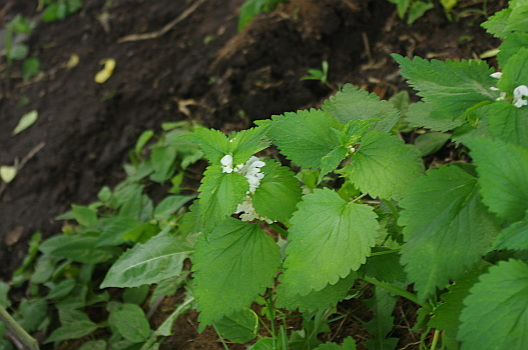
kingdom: Plantae
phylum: Tracheophyta
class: Magnoliopsida
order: Lamiales
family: Lamiaceae
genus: Lamium
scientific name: Lamium album
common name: White dead-nettle
